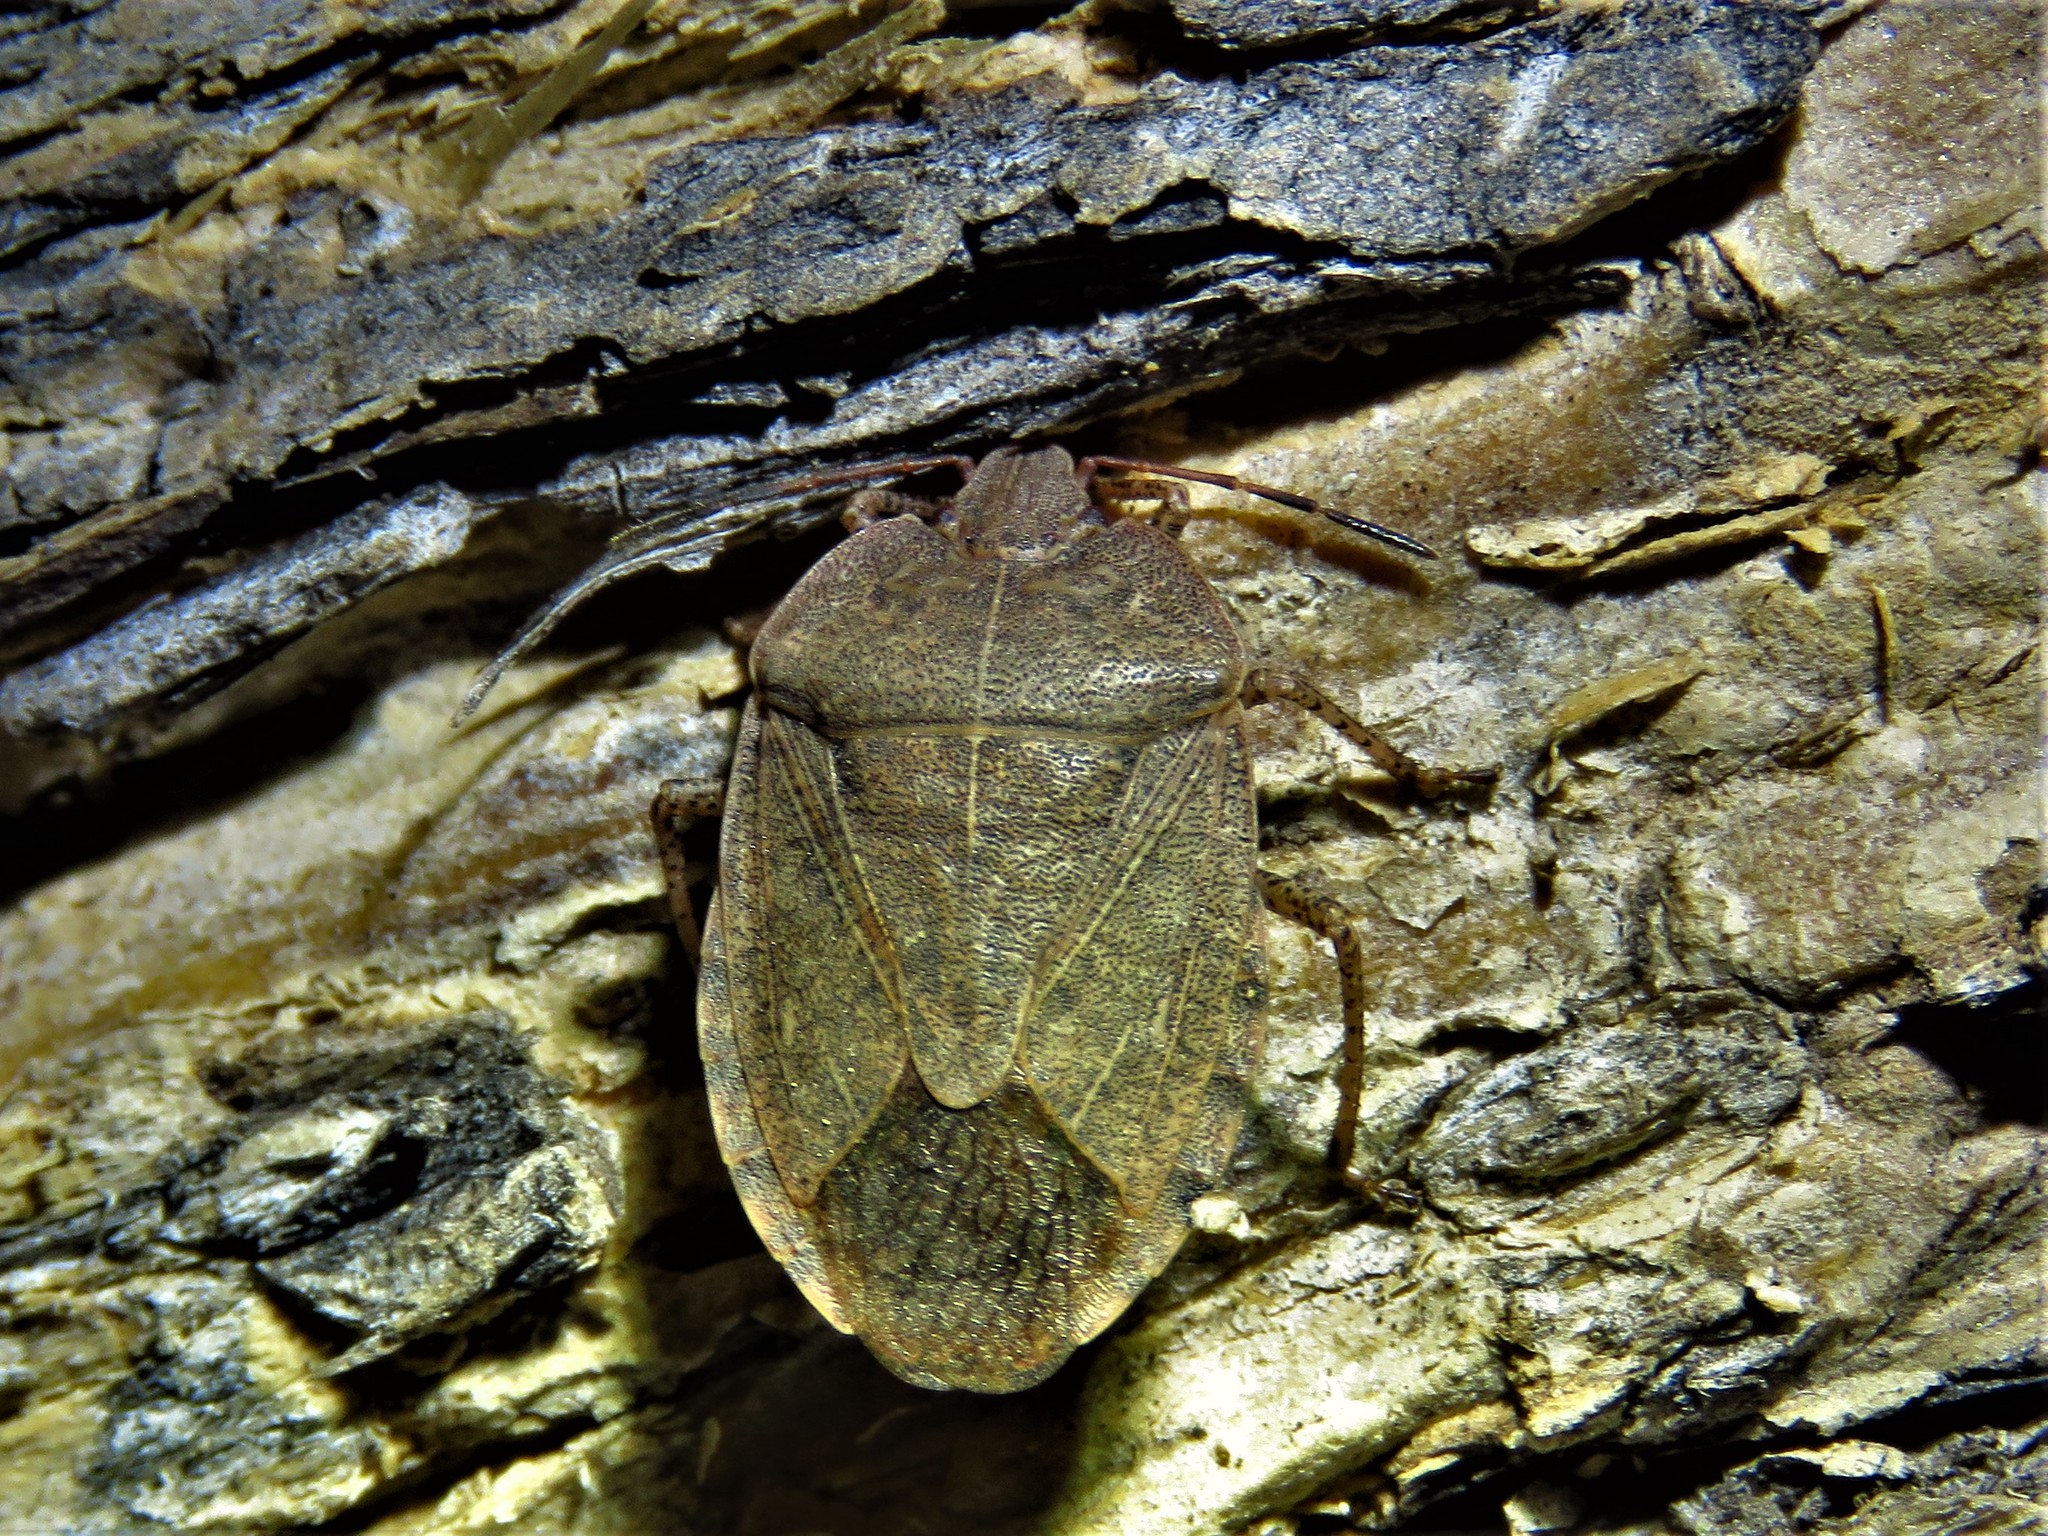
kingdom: Animalia
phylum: Arthropoda
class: Insecta
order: Hemiptera
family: Pentatomidae
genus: Menecles
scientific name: Menecles insertus
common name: Elf shoe stink bug
